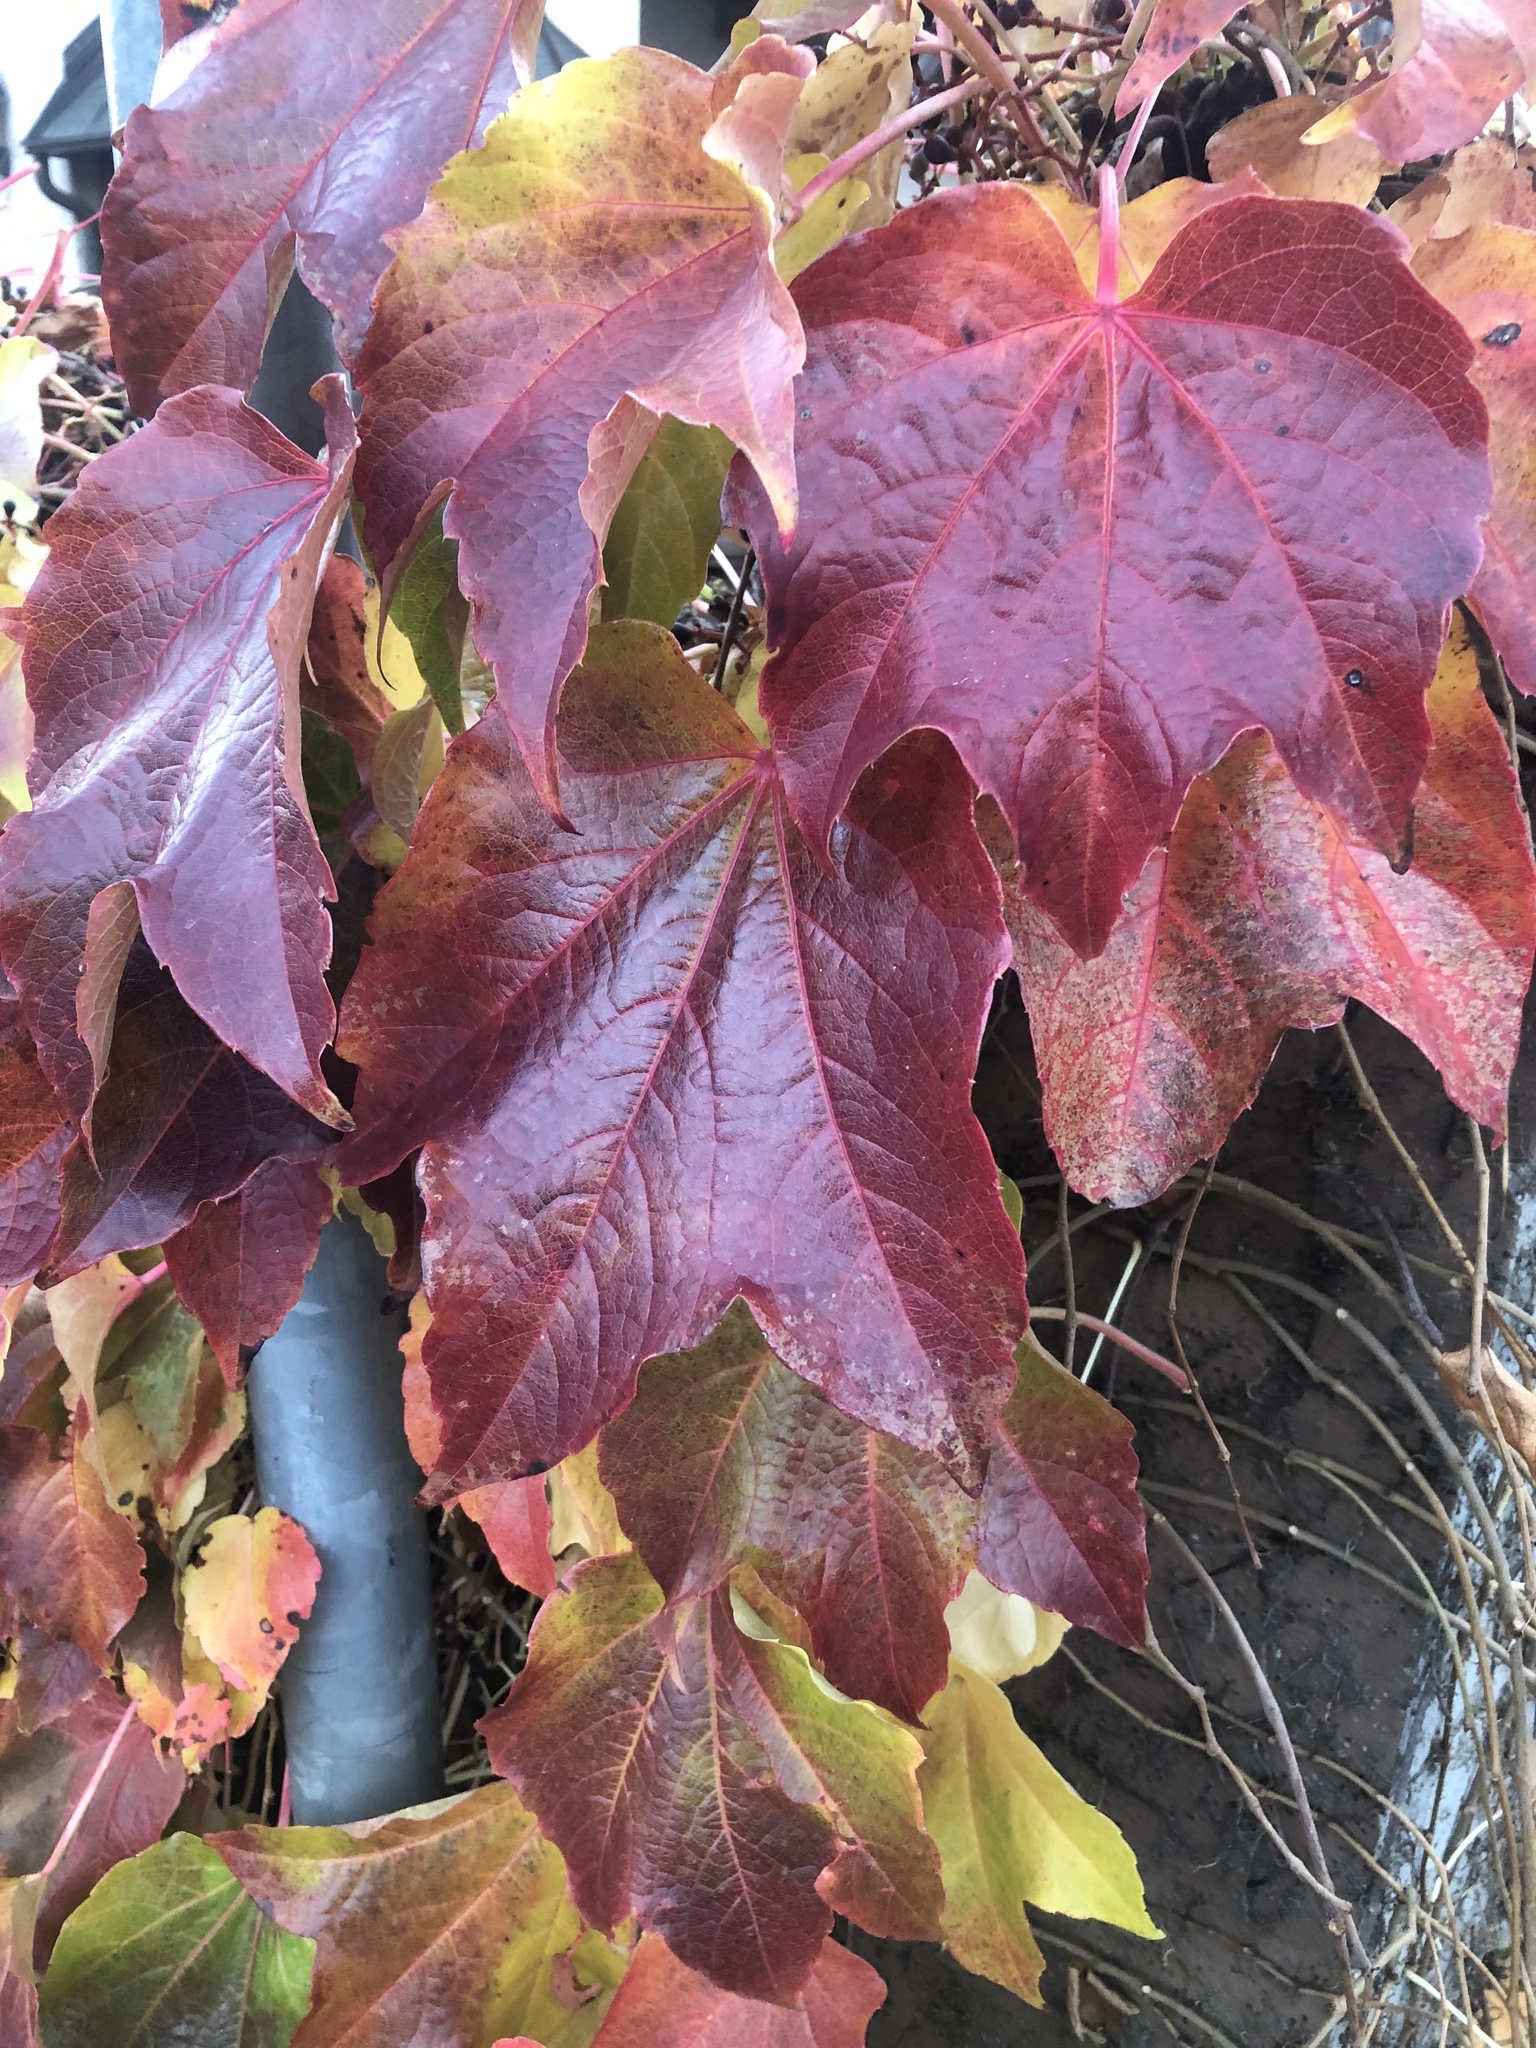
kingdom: Plantae
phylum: Tracheophyta
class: Magnoliopsida
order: Vitales
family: Vitaceae
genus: Parthenocissus
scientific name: Parthenocissus tricuspidata
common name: Boston ivy
